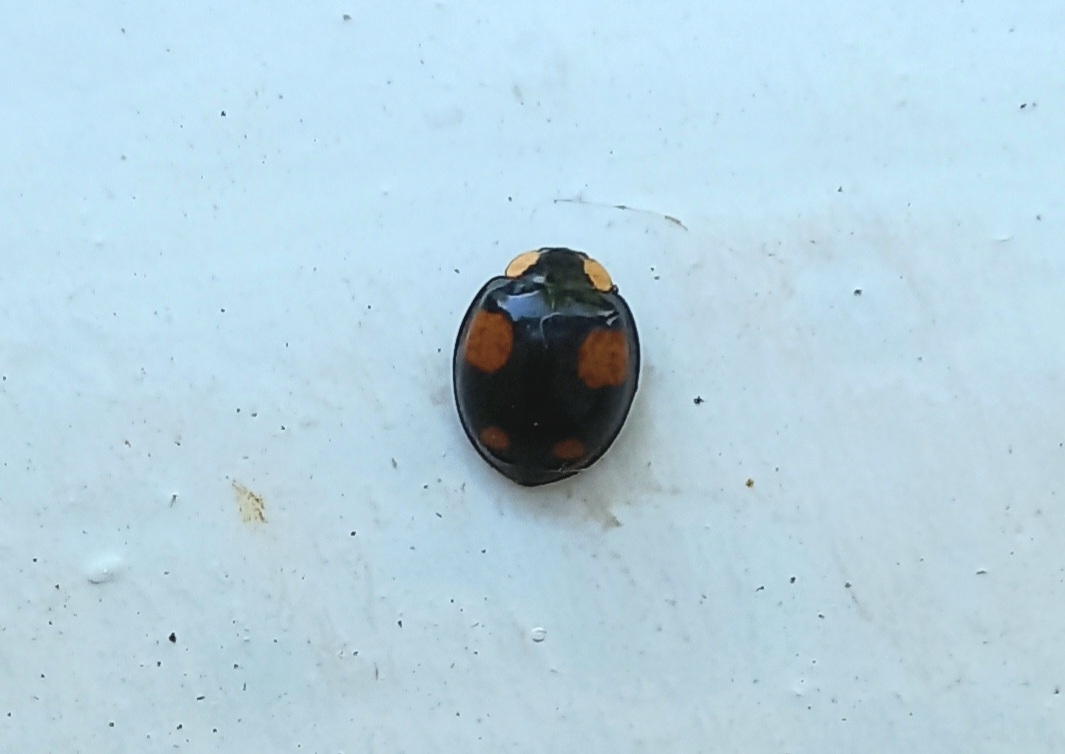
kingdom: Animalia
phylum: Arthropoda
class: Insecta
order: Coleoptera
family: Coccinellidae
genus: Harmonia
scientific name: Harmonia axyridis
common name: Harlequin ladybird
